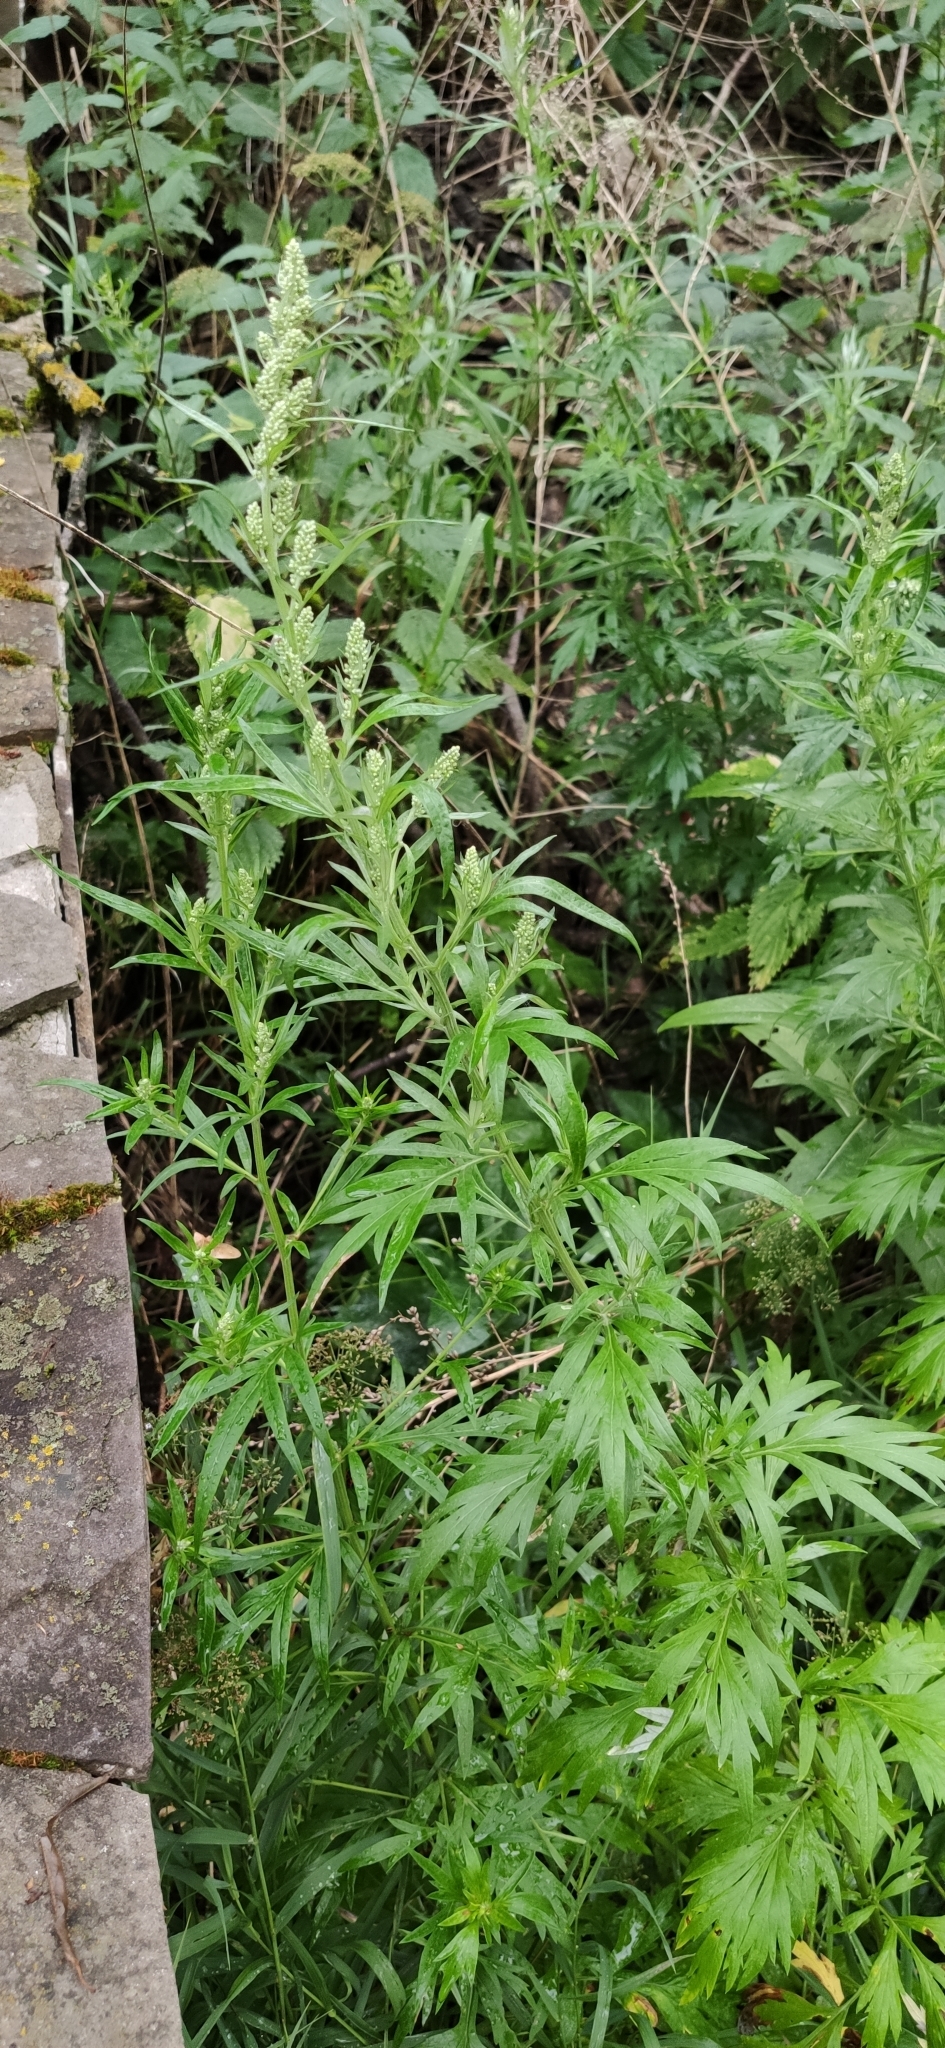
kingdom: Plantae
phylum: Tracheophyta
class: Magnoliopsida
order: Asterales
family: Asteraceae
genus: Artemisia
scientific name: Artemisia vulgaris
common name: Mugwort
